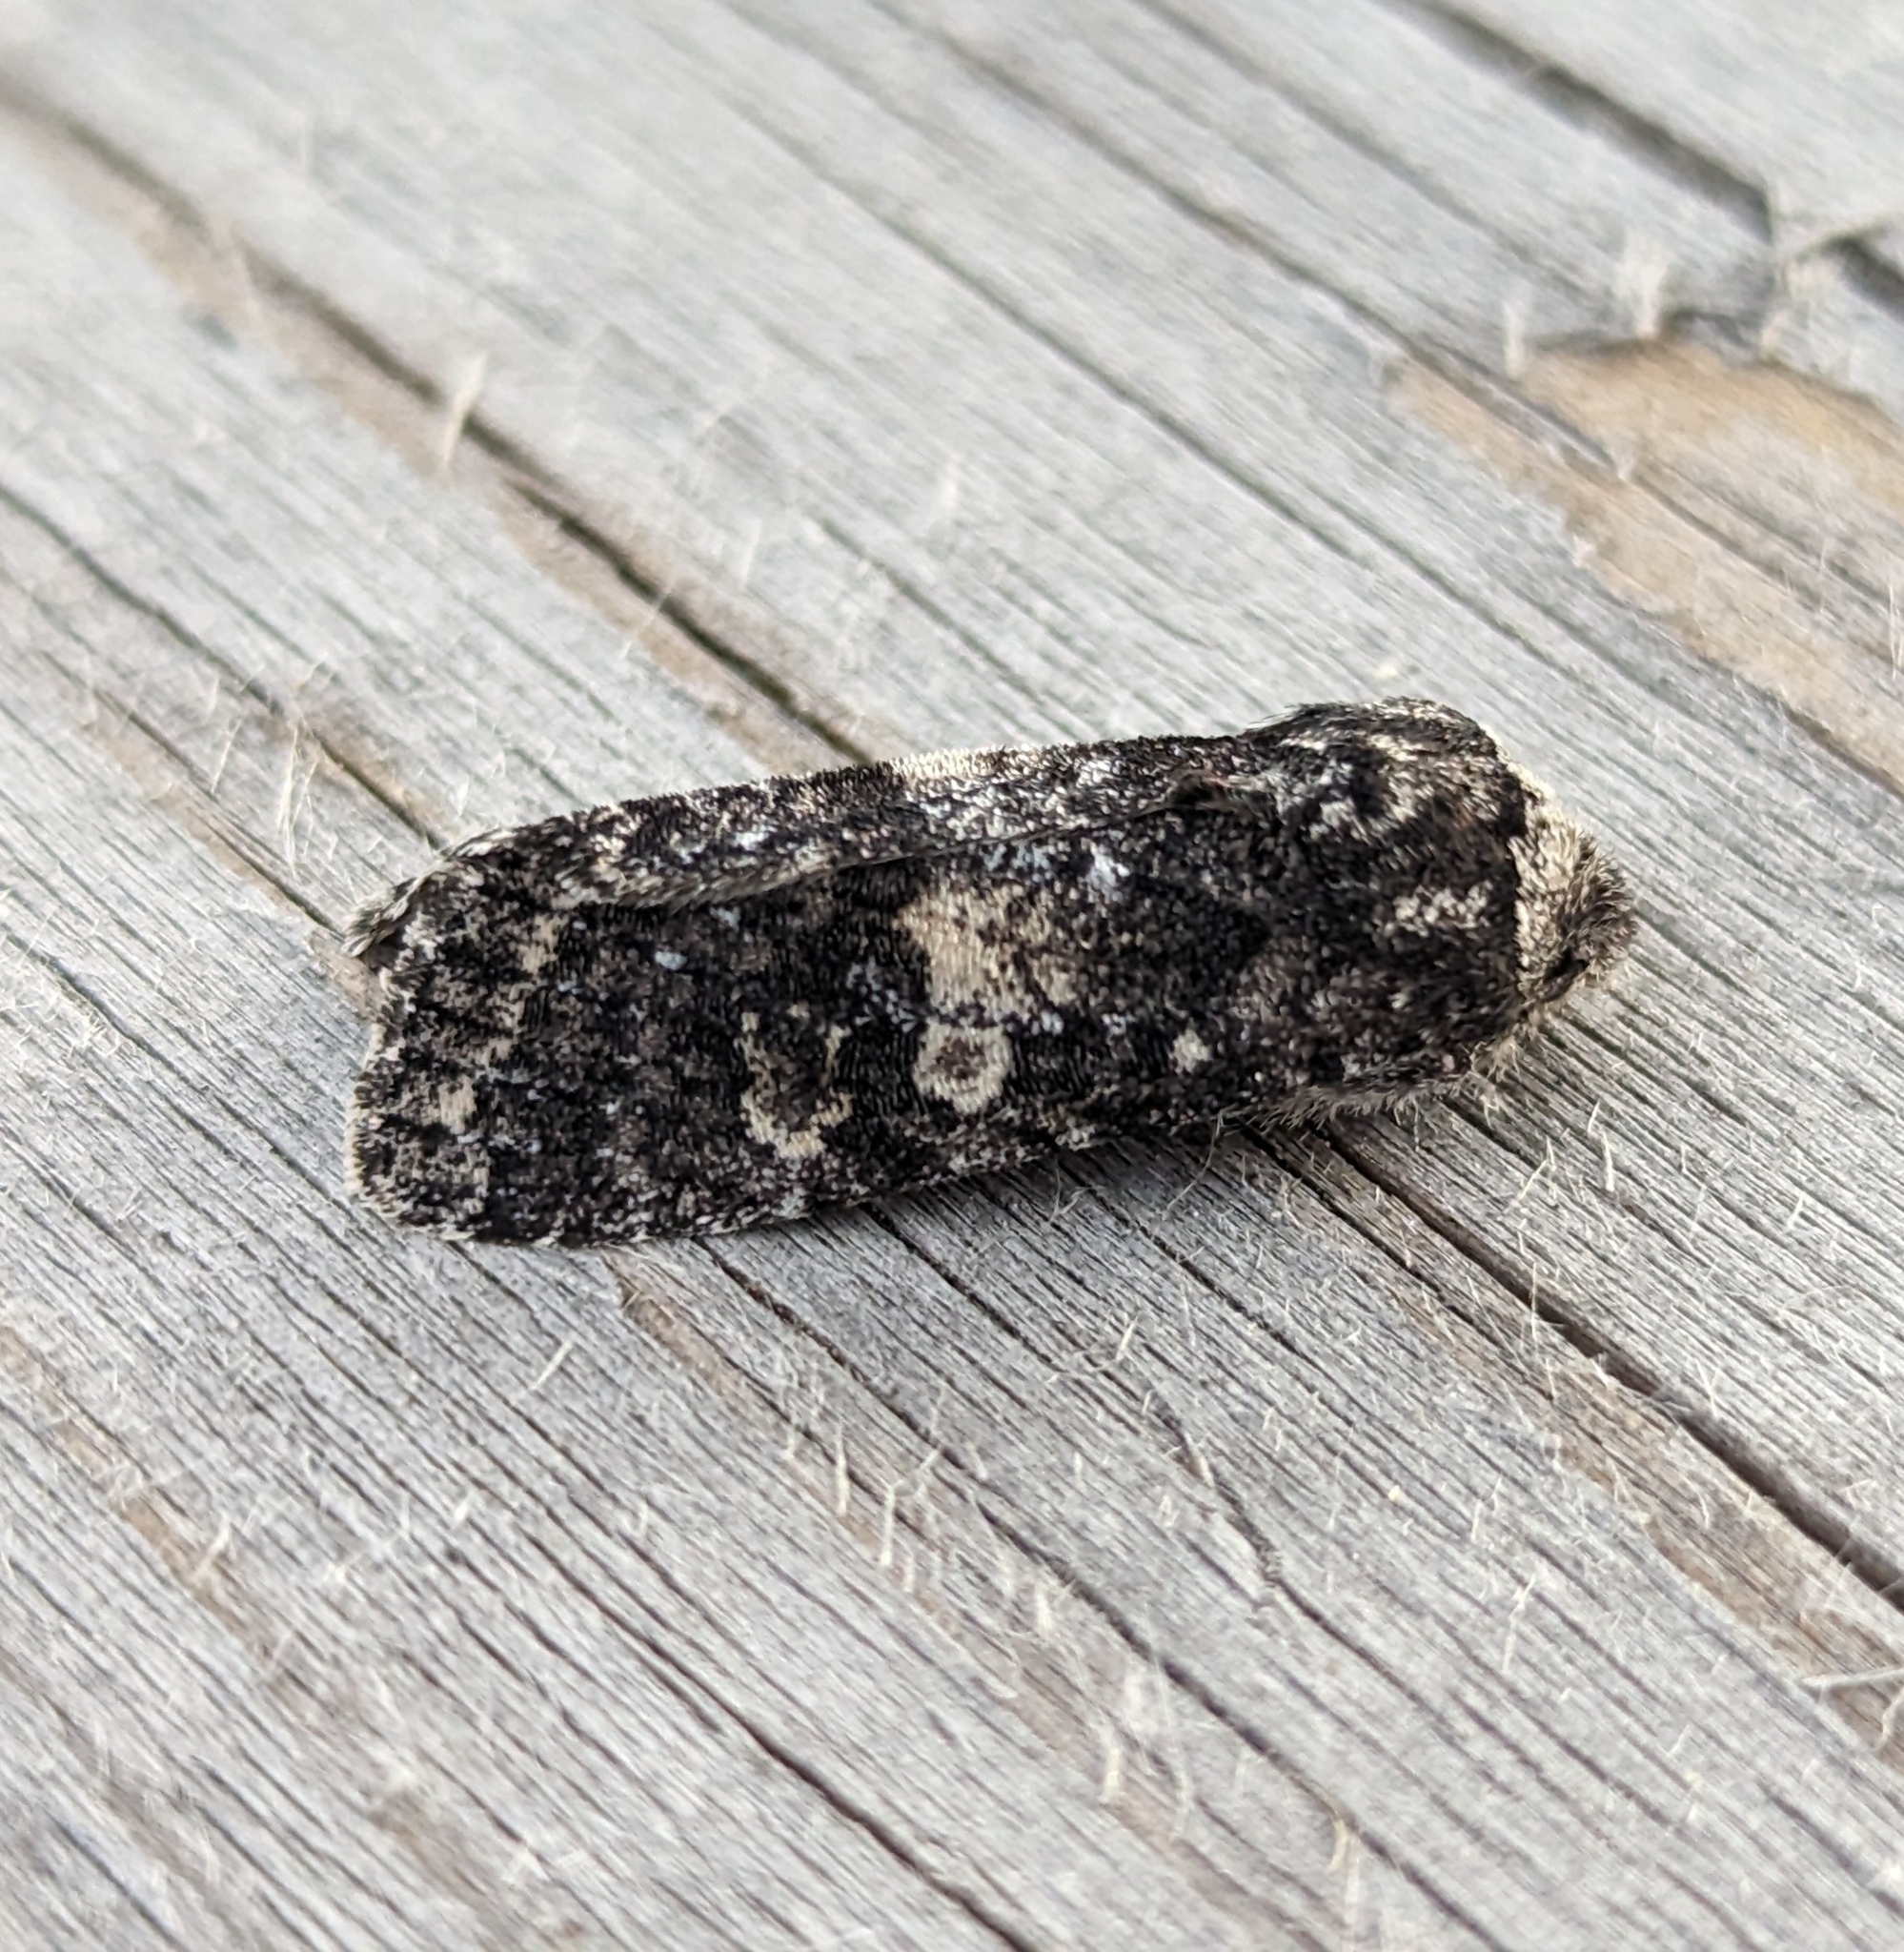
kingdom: Animalia
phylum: Arthropoda
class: Insecta
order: Lepidoptera
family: Noctuidae
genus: Egira
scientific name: Egira dolosa
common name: Lined black aspen cat.
